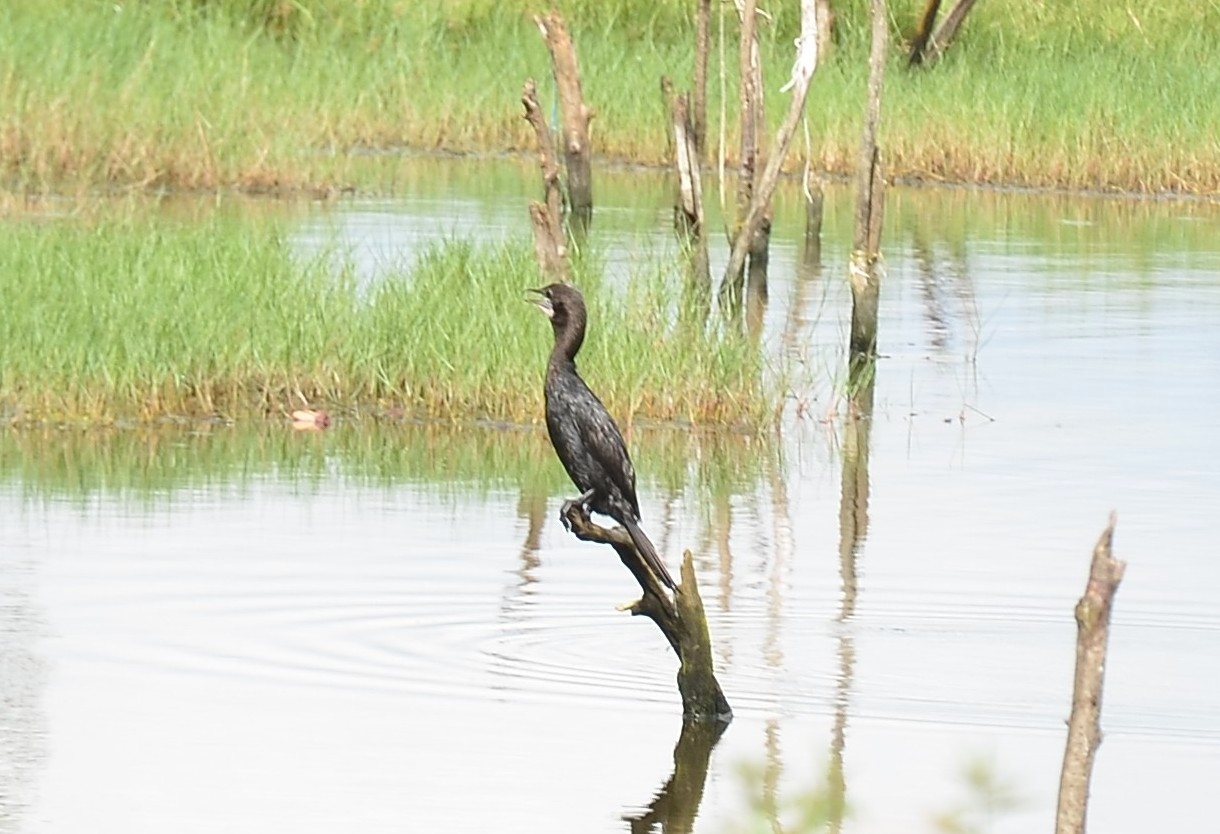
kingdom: Animalia
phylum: Chordata
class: Aves
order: Suliformes
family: Phalacrocoracidae
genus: Microcarbo
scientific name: Microcarbo niger
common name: Little cormorant
